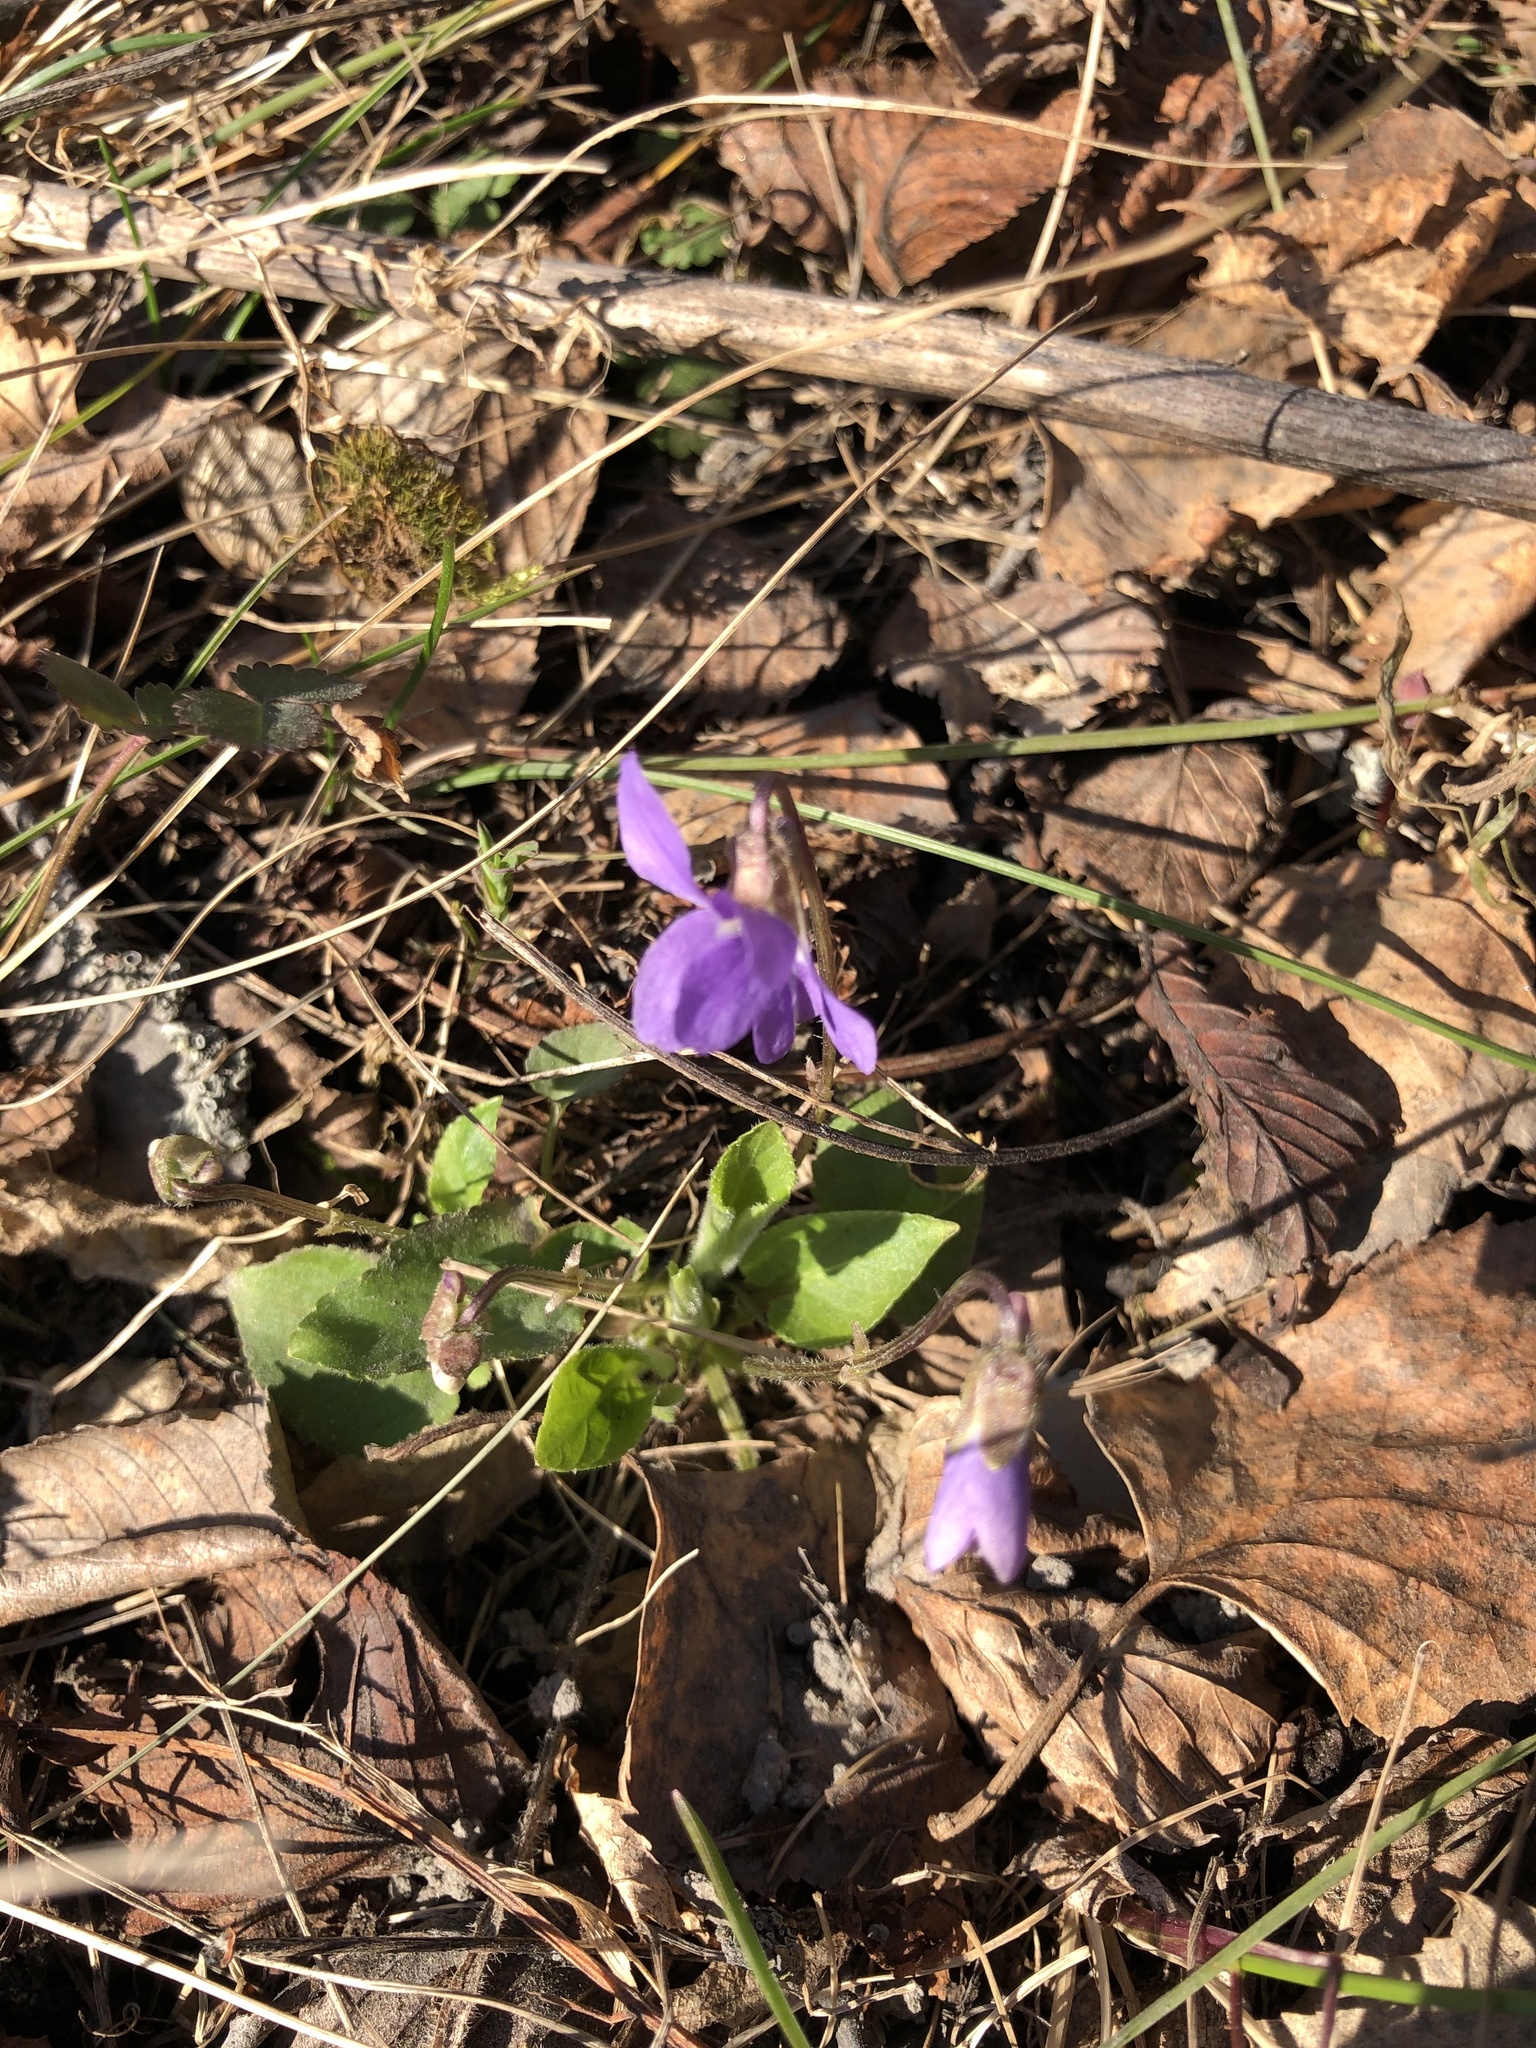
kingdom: Plantae
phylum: Tracheophyta
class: Magnoliopsida
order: Malpighiales
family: Violaceae
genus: Viola
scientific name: Viola hirta
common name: Hairy violet
